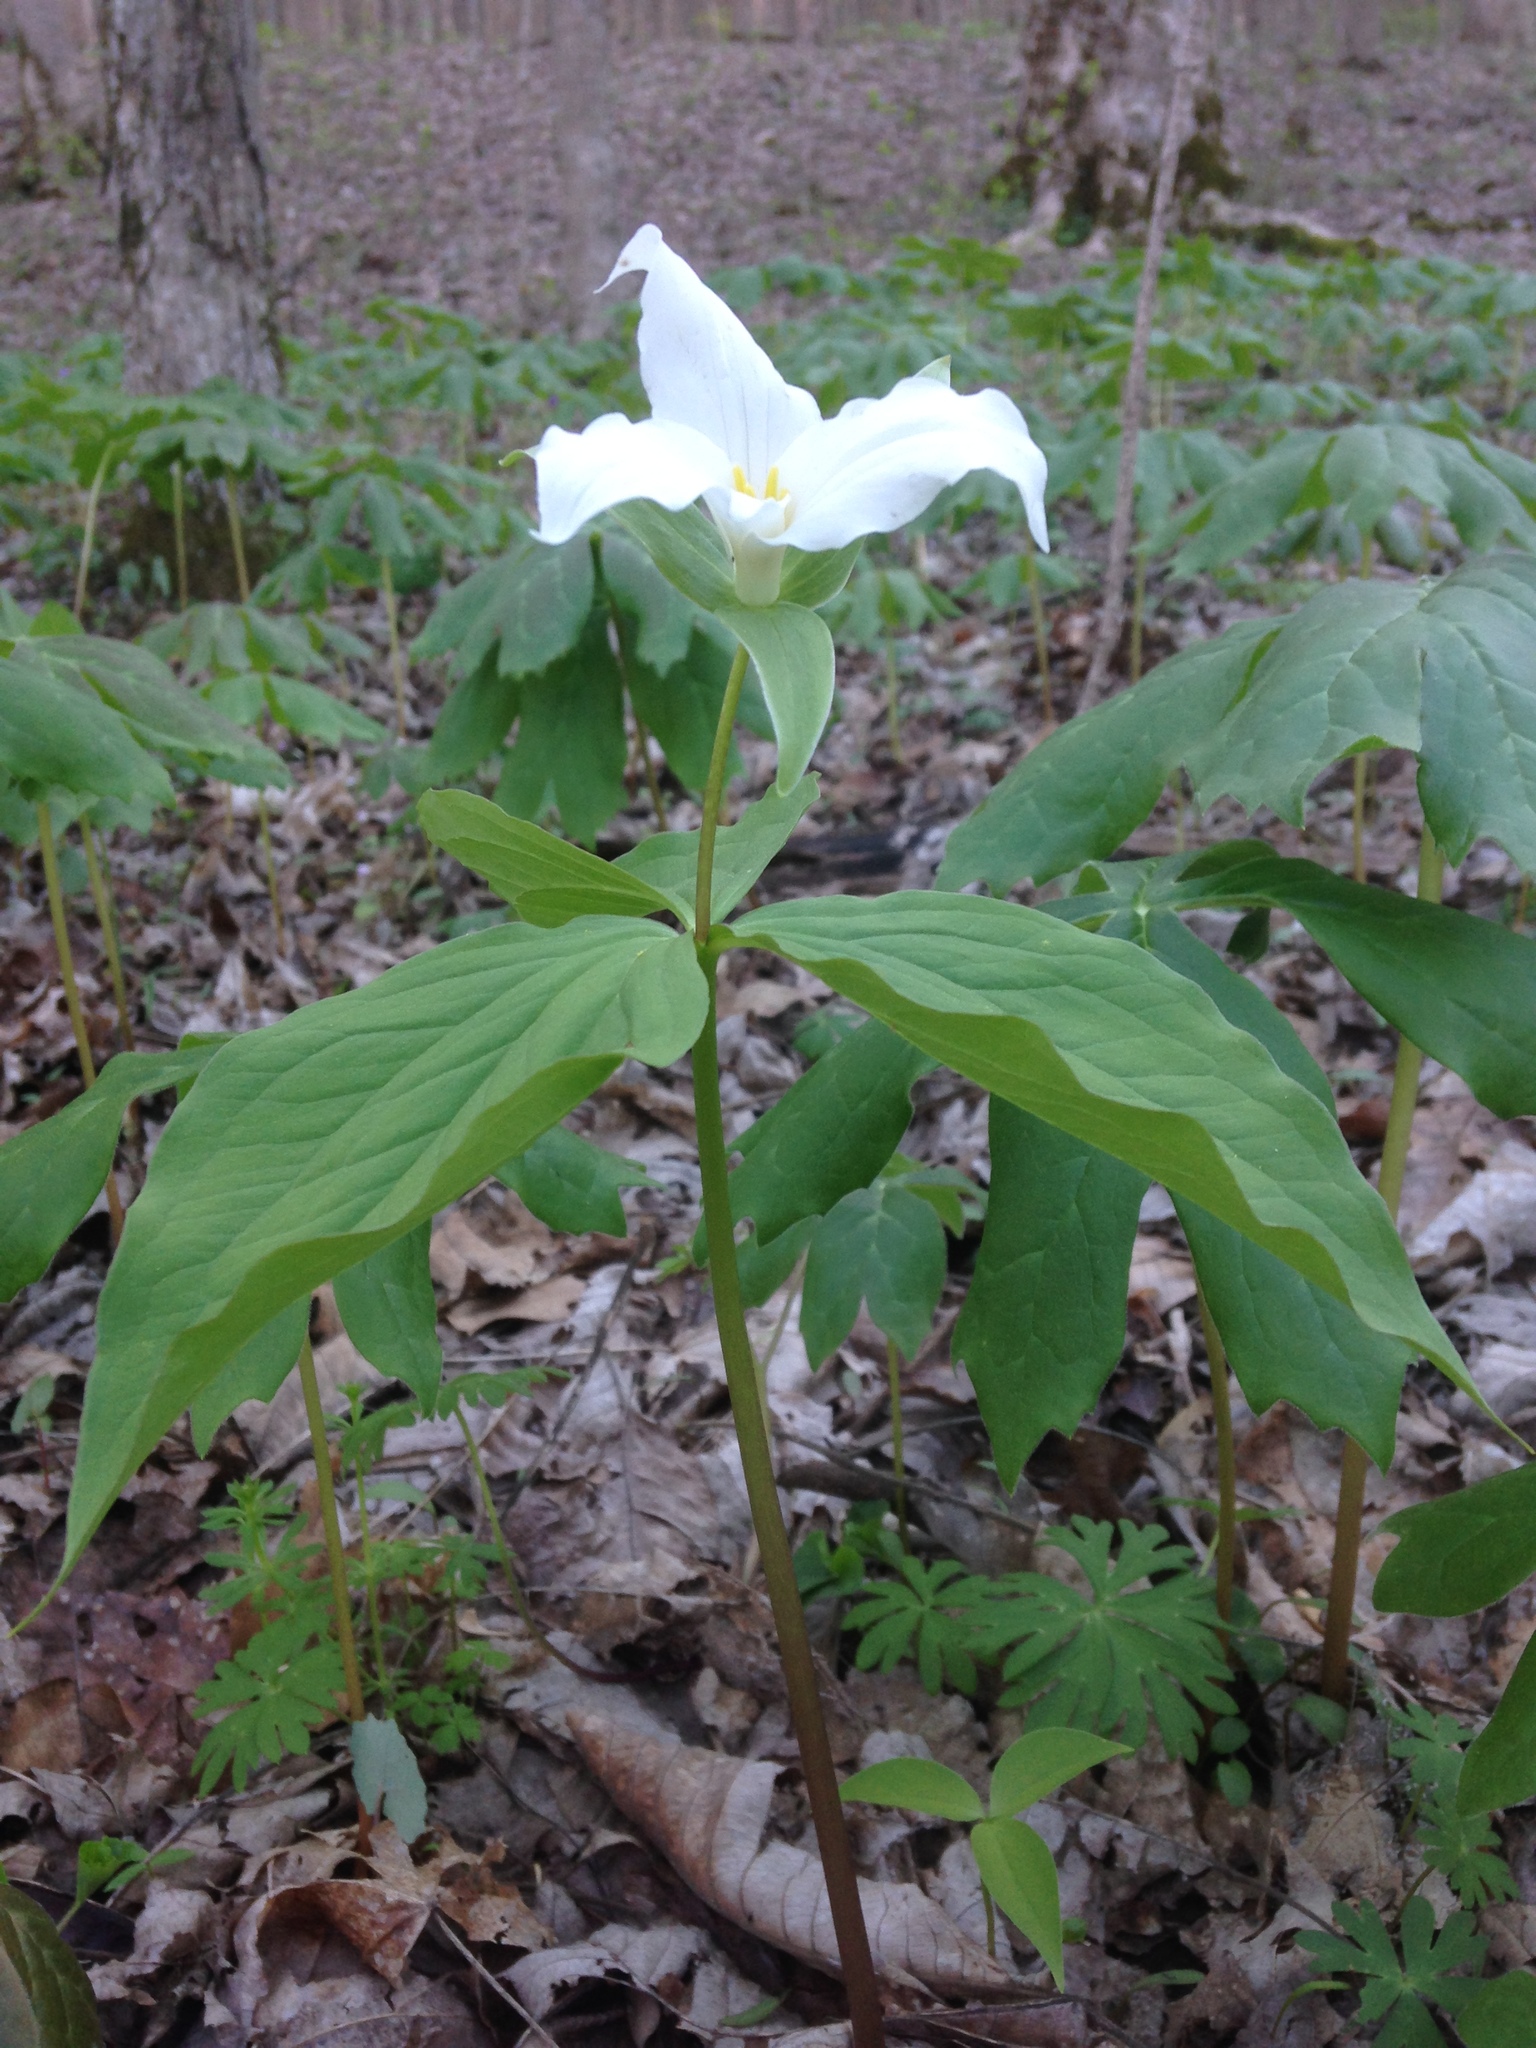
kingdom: Plantae
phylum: Tracheophyta
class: Liliopsida
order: Liliales
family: Melanthiaceae
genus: Trillium
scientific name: Trillium grandiflorum
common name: Great white trillium
